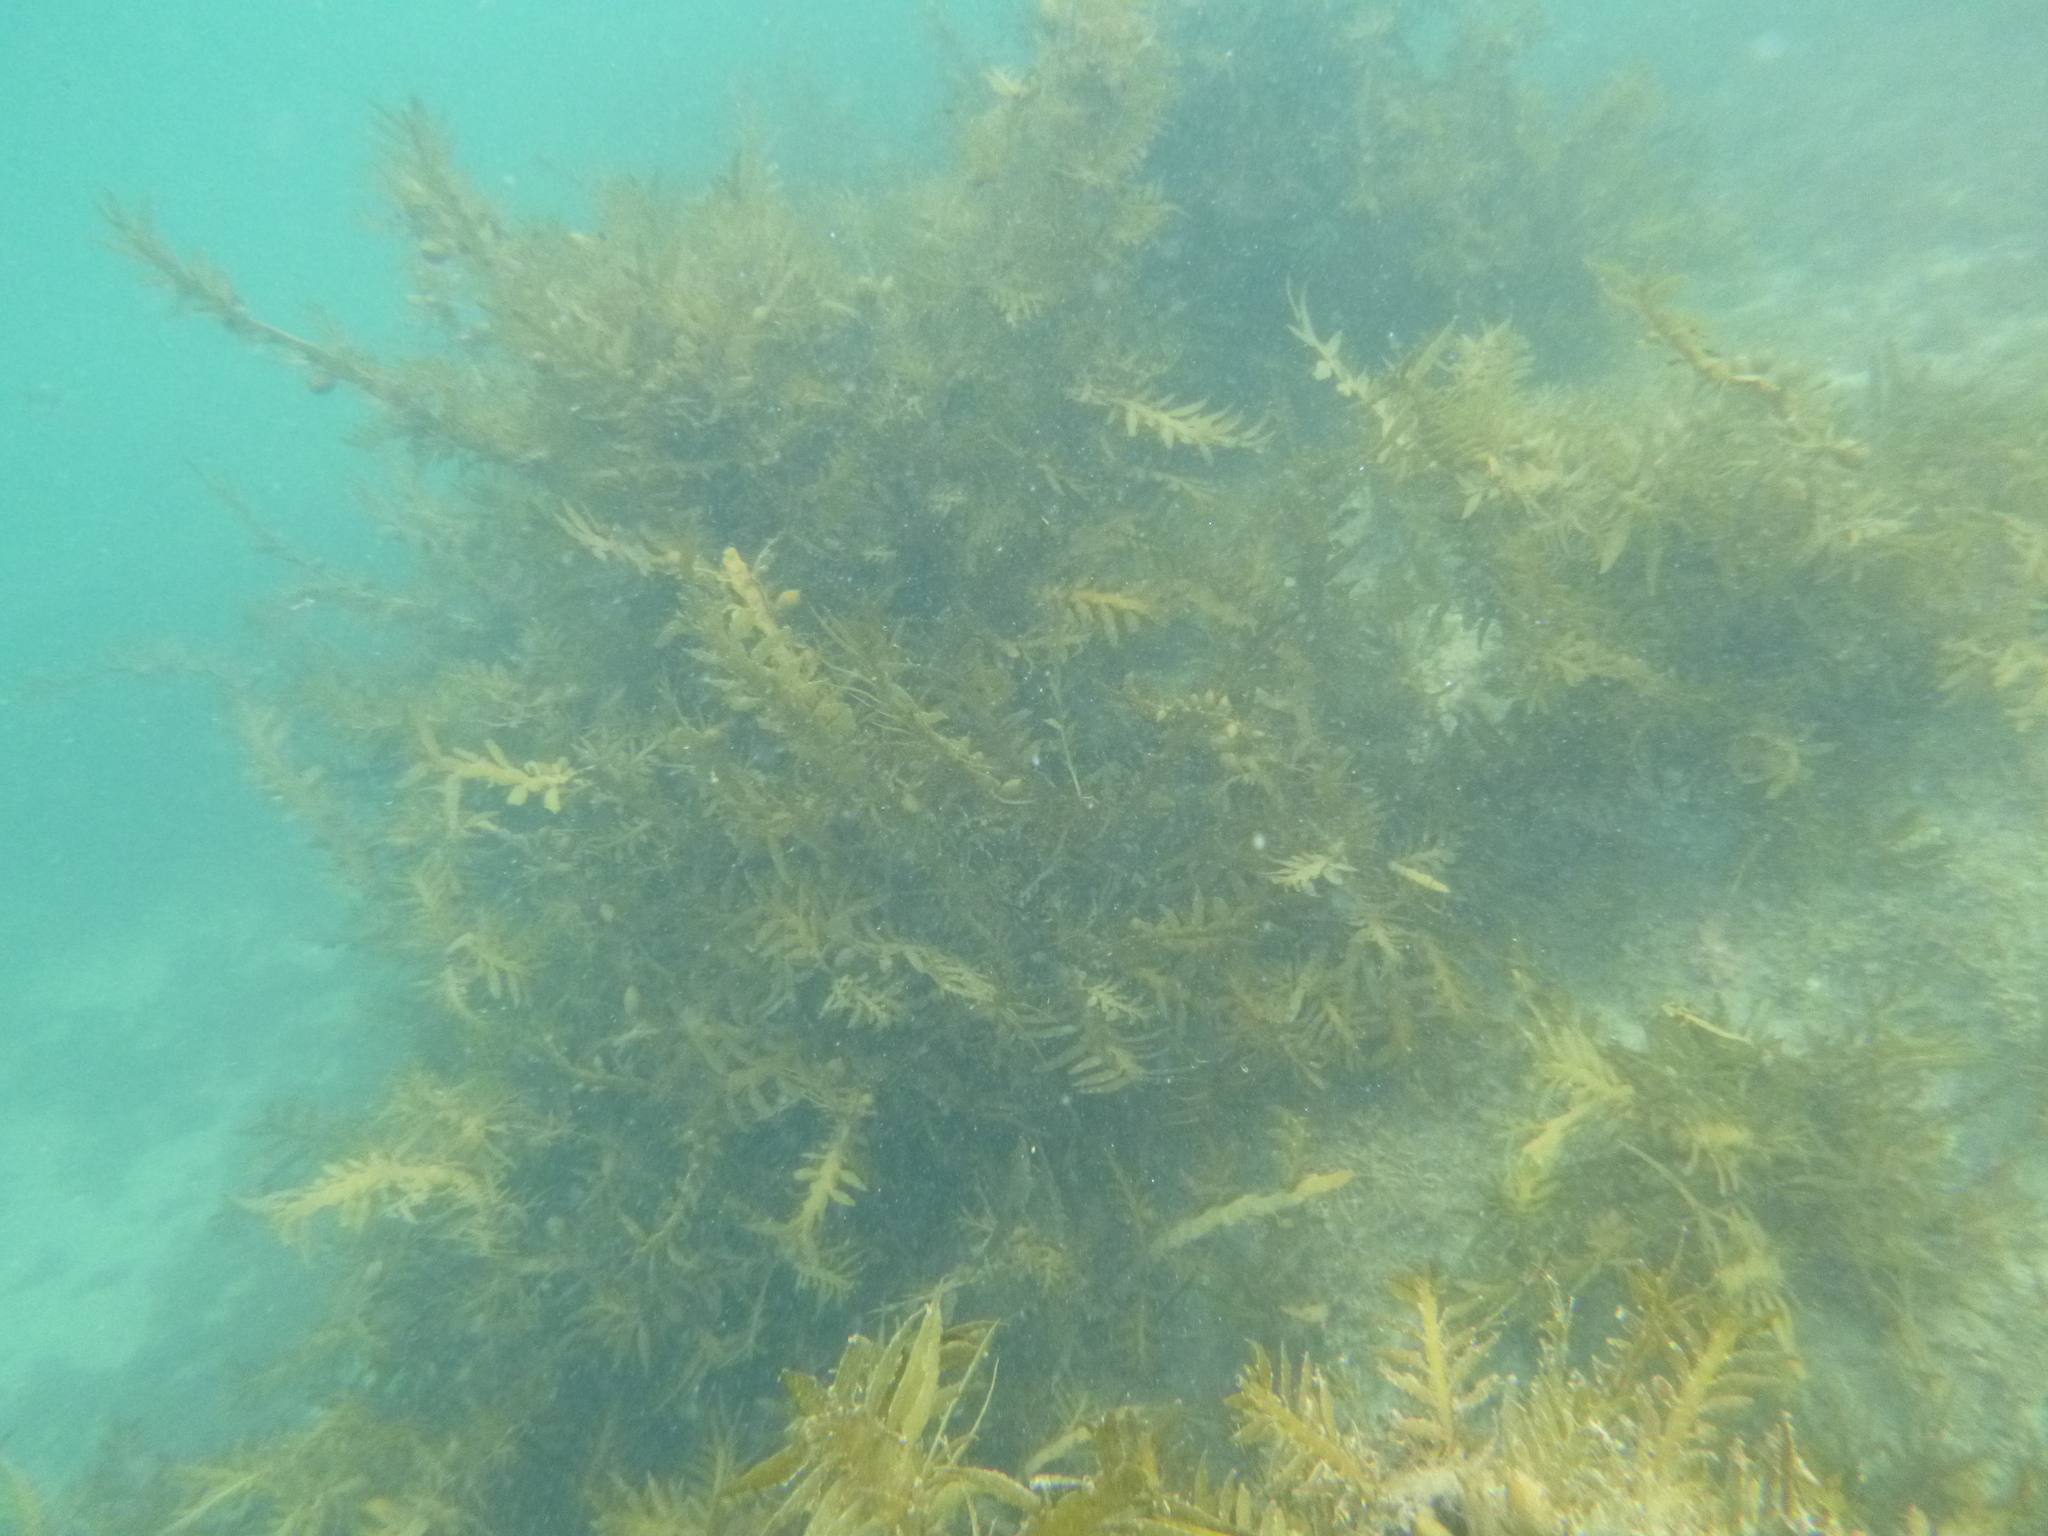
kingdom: Chromista
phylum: Ochrophyta
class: Phaeophyceae
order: Fucales
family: Sargassaceae
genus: Carpophyllum
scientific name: Carpophyllum maschalocarpum
